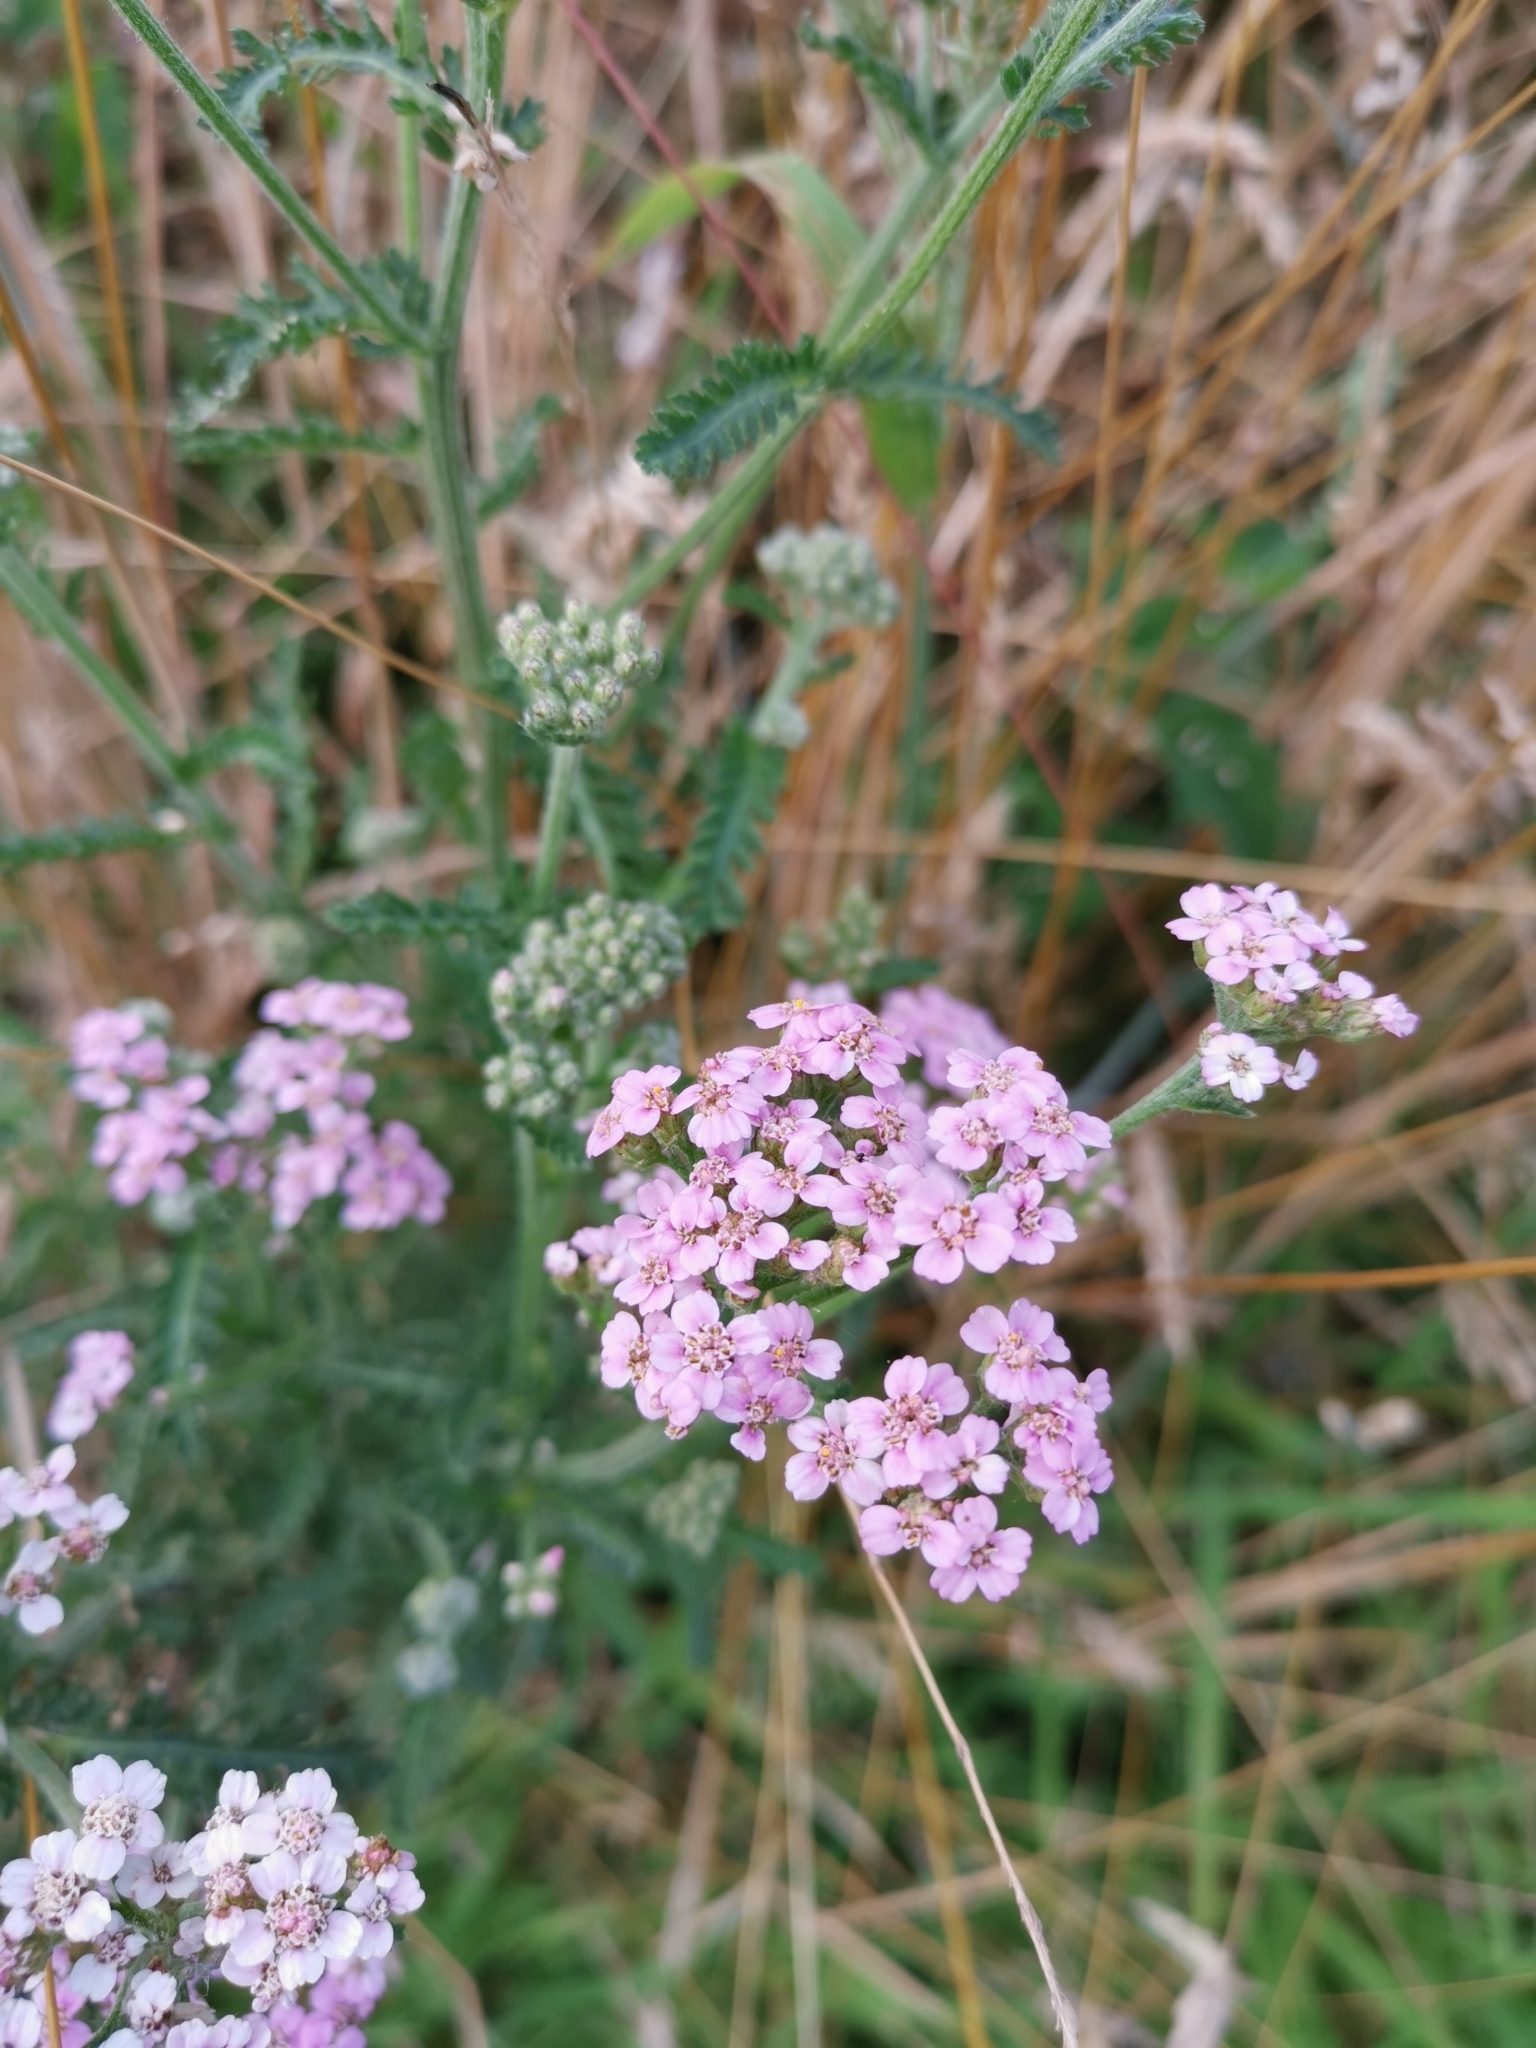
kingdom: Plantae
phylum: Tracheophyta
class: Magnoliopsida
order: Asterales
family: Asteraceae
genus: Achillea
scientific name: Achillea millefolium
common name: Yarrow
